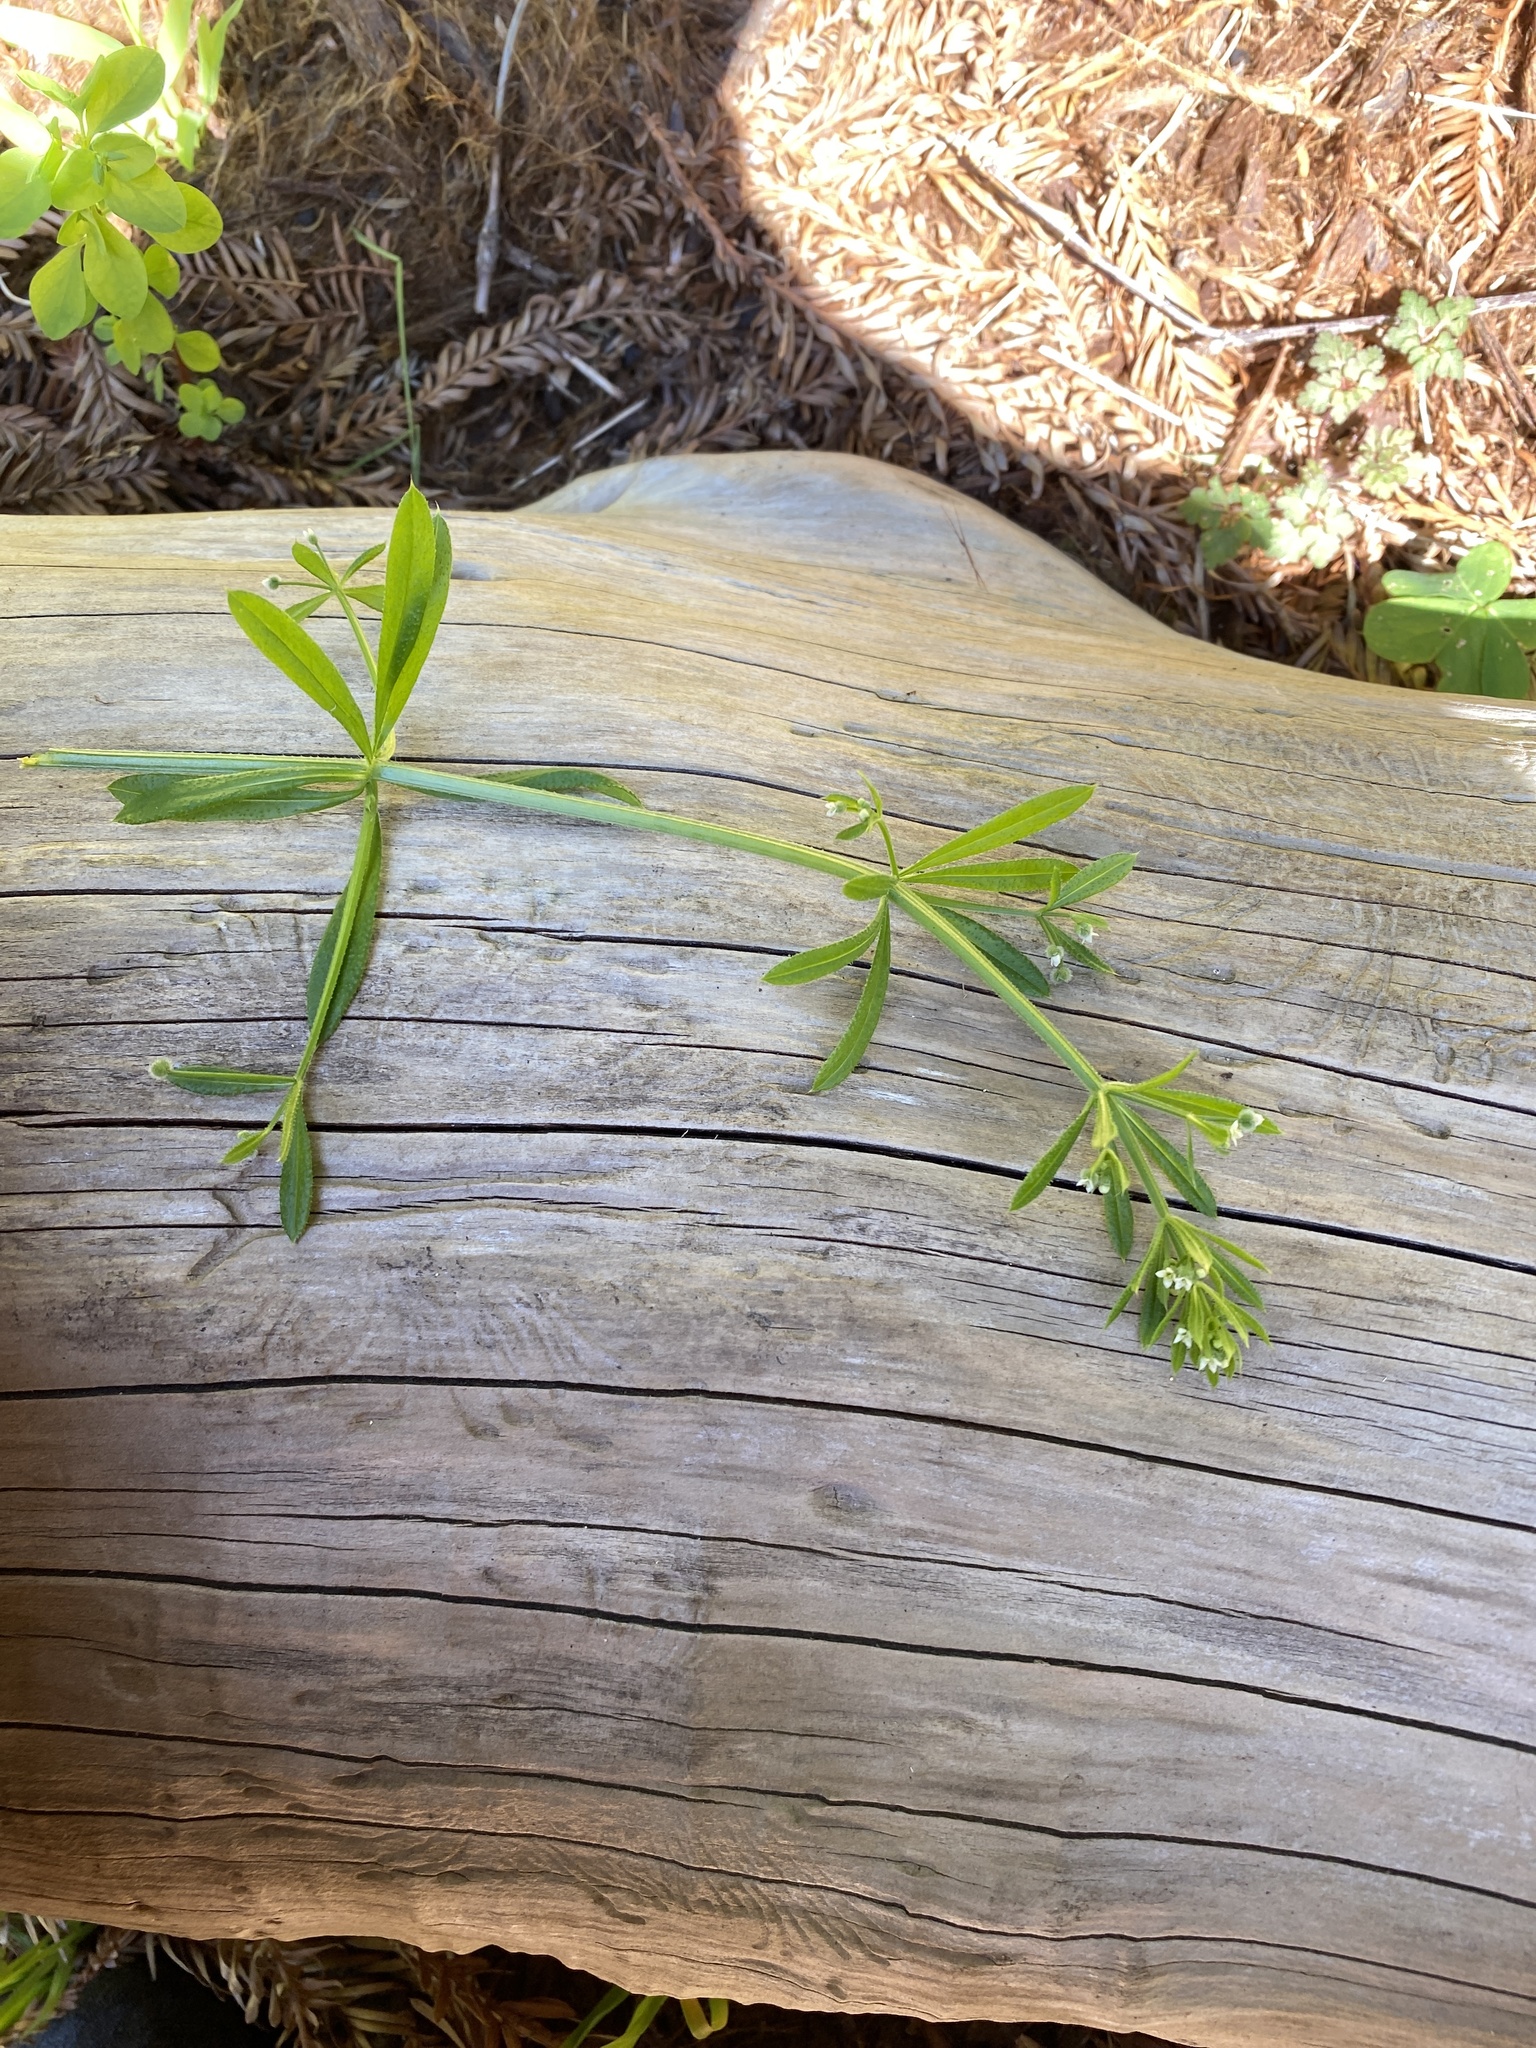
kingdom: Plantae
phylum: Tracheophyta
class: Magnoliopsida
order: Gentianales
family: Rubiaceae
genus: Galium
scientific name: Galium aparine
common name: Cleavers
